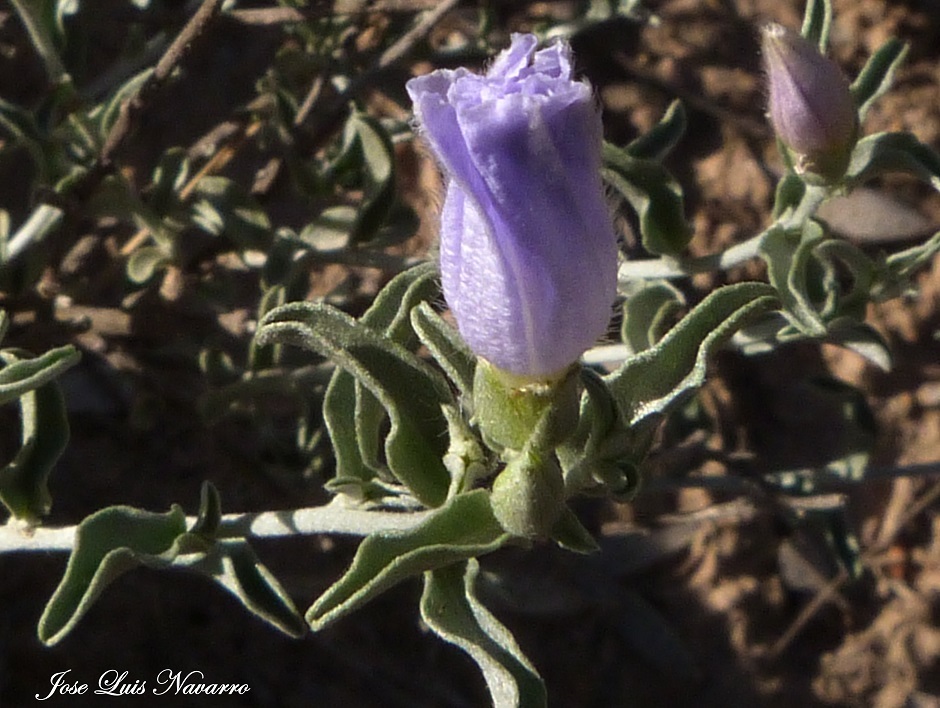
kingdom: Plantae
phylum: Tracheophyta
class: Magnoliopsida
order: Solanales
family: Convolvulaceae
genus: Bonamia
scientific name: Bonamia sericea
